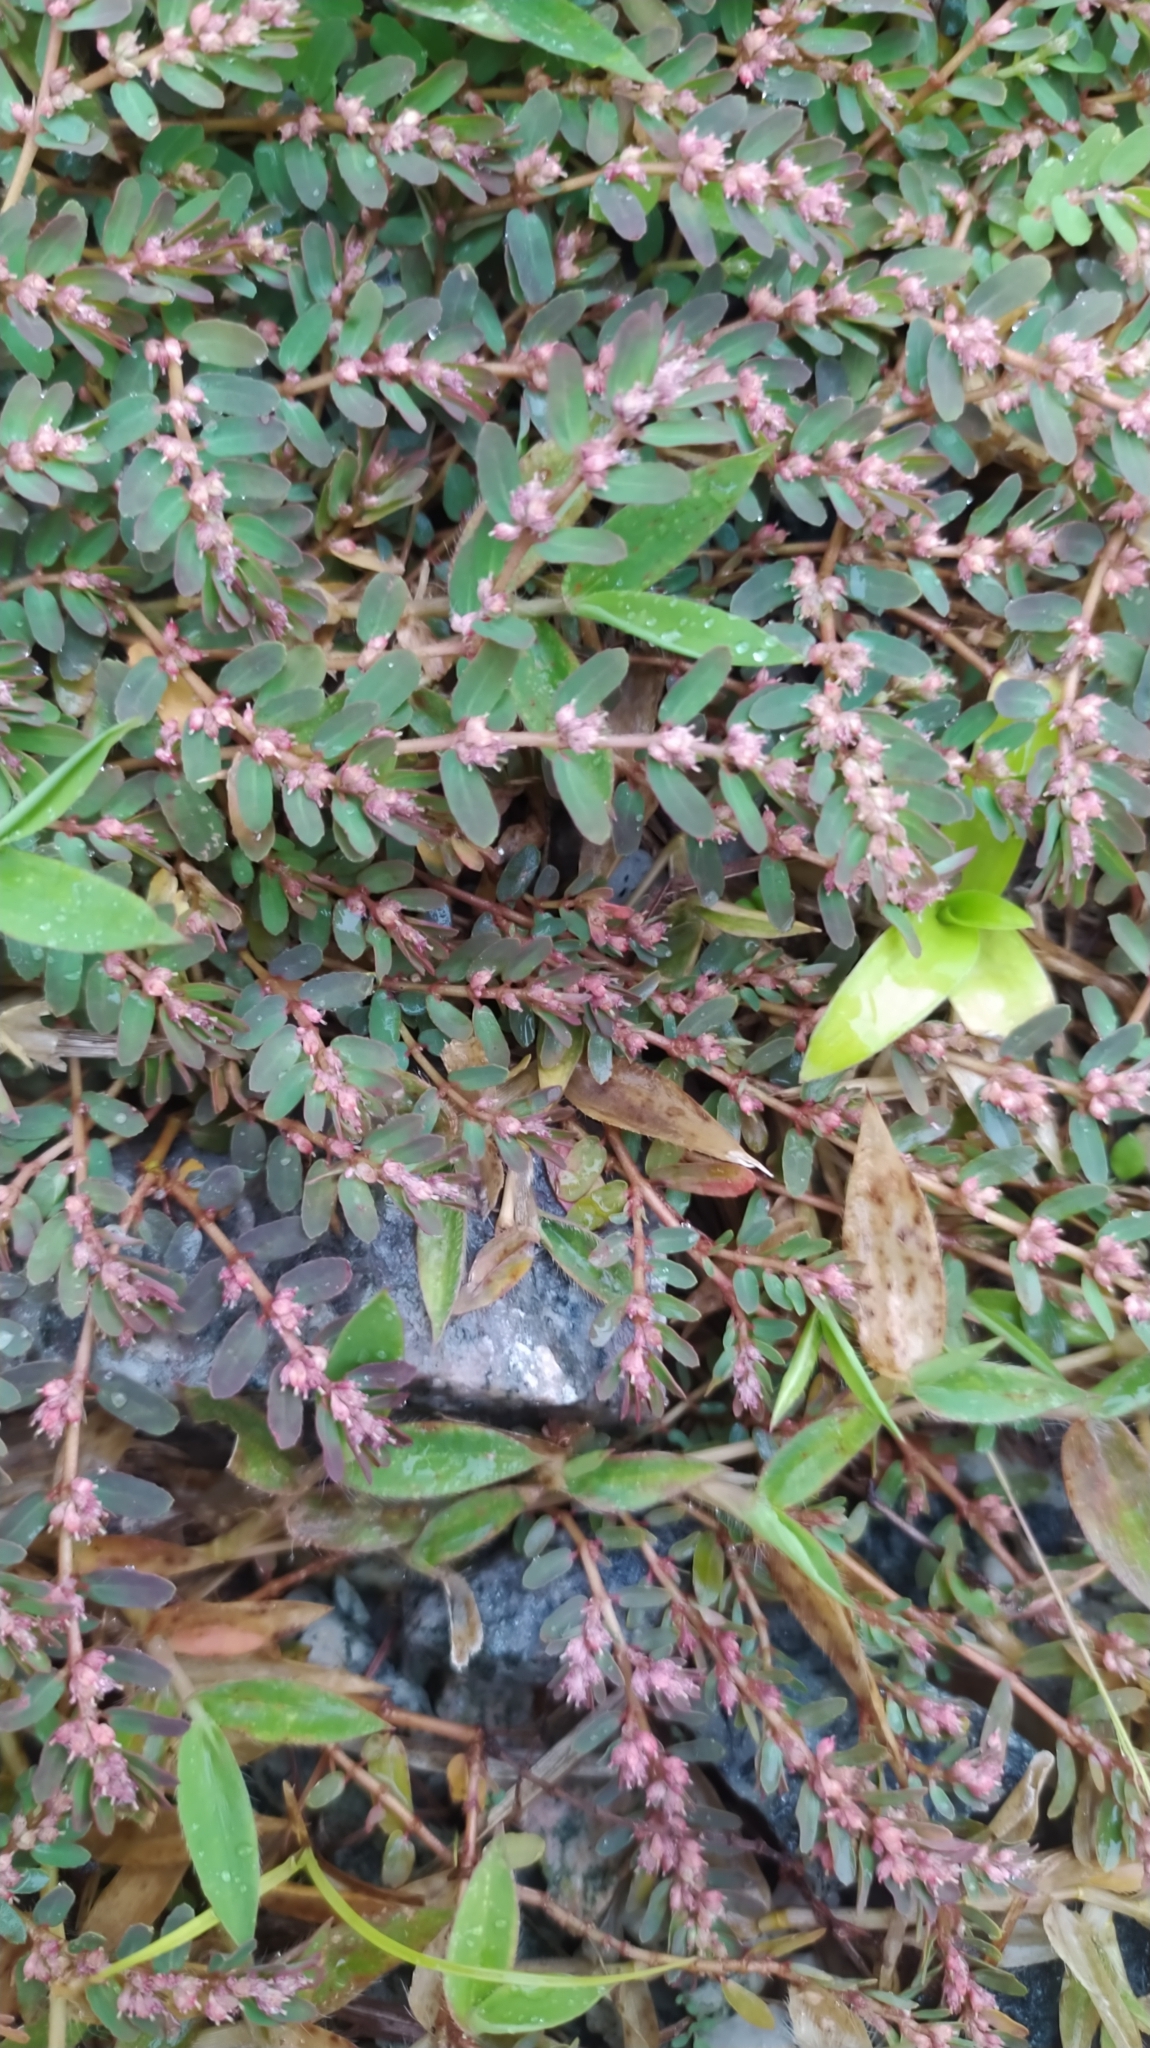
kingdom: Plantae
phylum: Tracheophyta
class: Magnoliopsida
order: Malpighiales
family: Euphorbiaceae
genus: Euphorbia
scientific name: Euphorbia thymifolia
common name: Gulf sandmat
